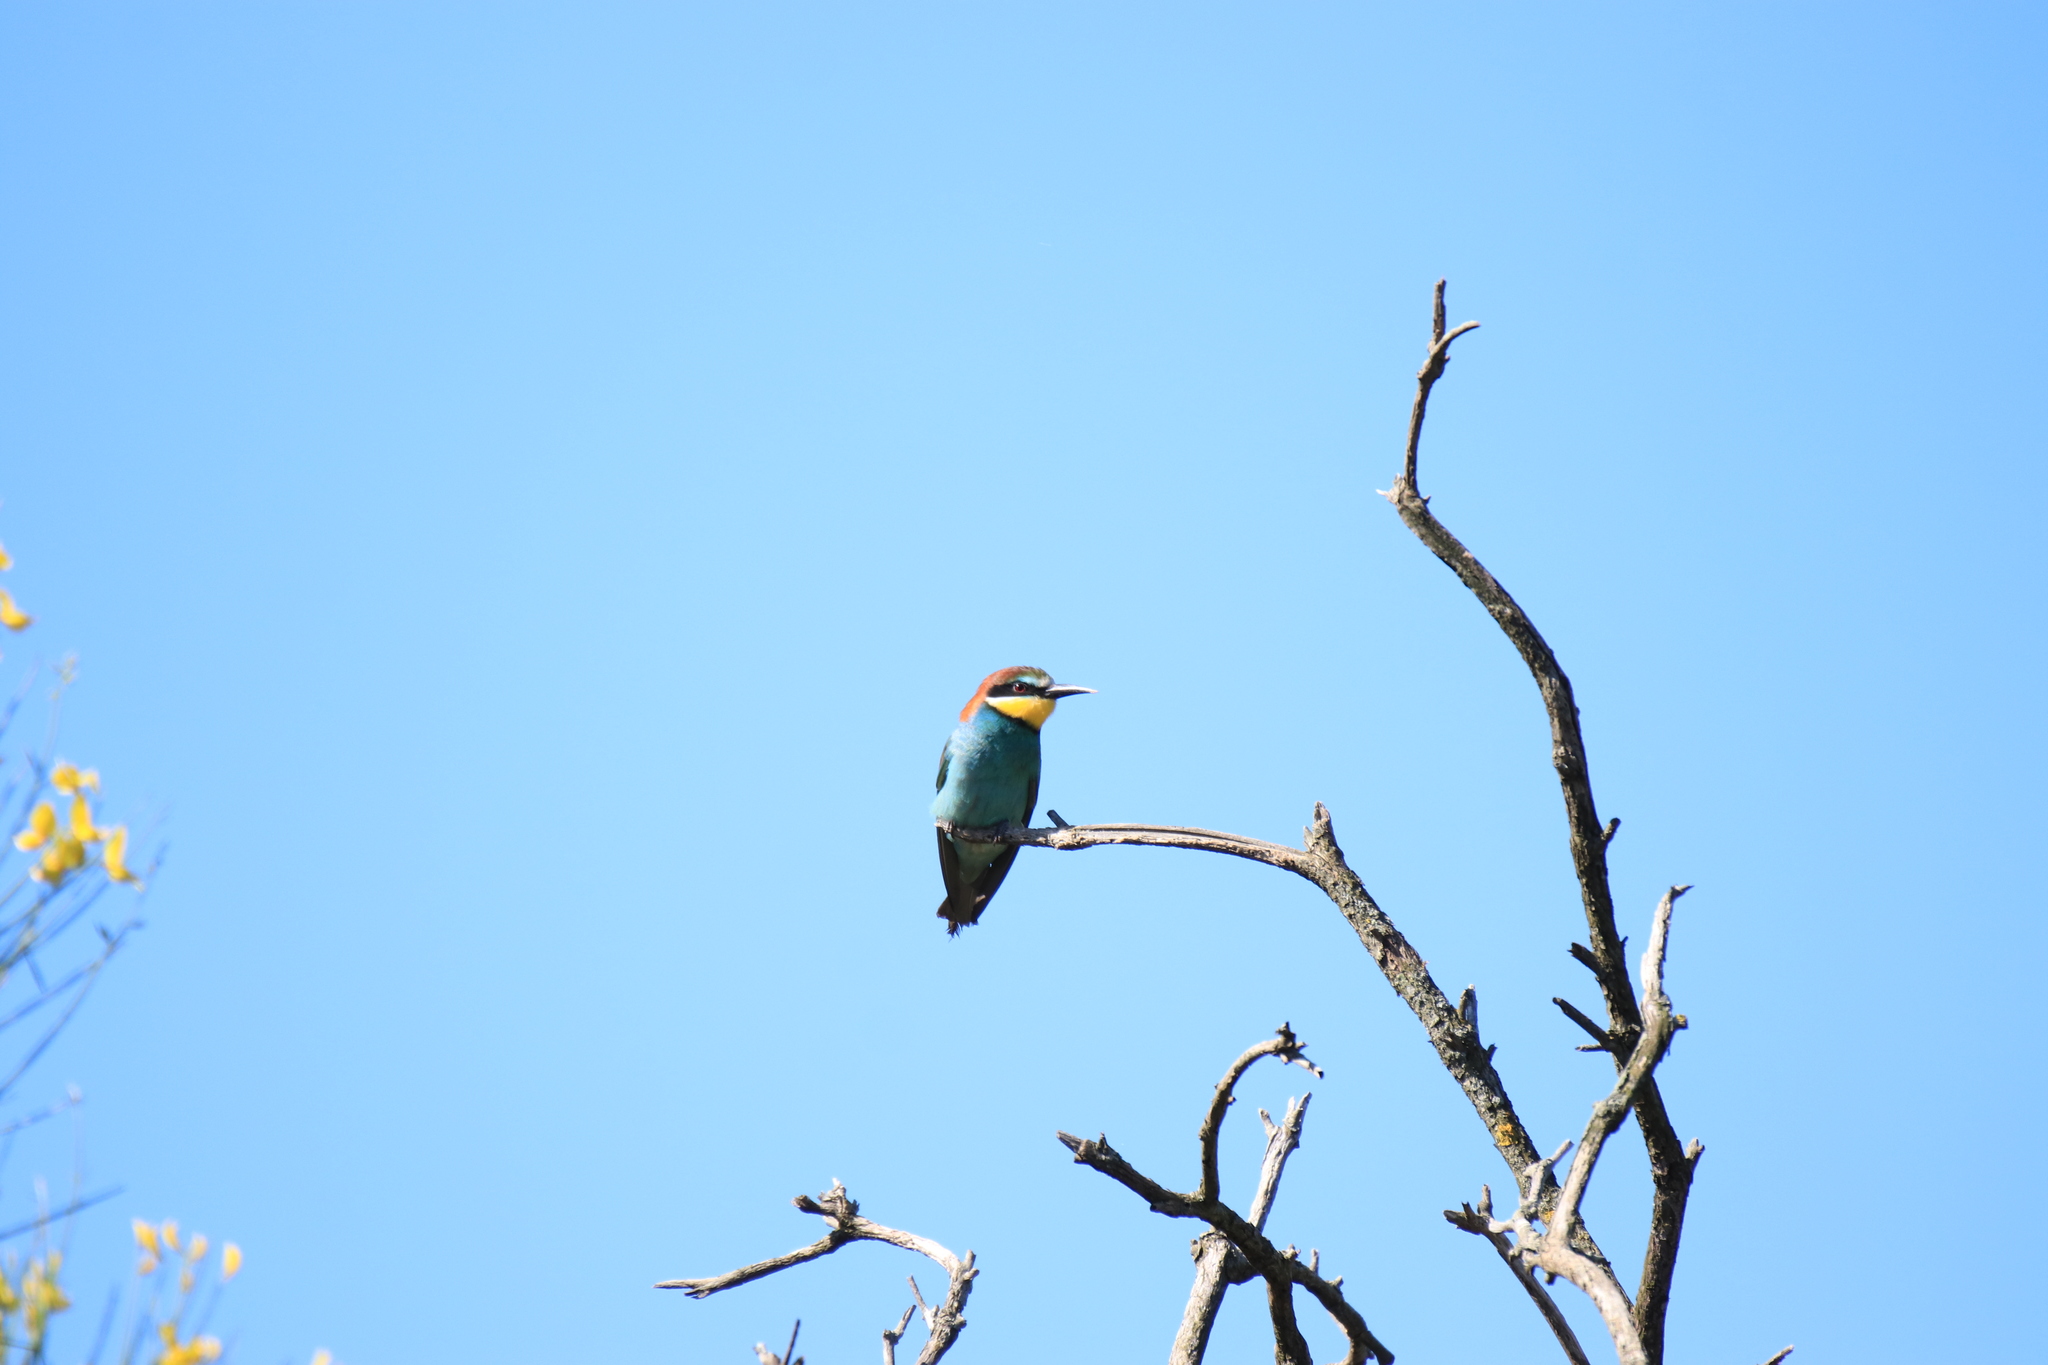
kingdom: Animalia
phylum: Chordata
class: Aves
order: Coraciiformes
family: Meropidae
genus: Merops
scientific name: Merops apiaster
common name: European bee-eater
